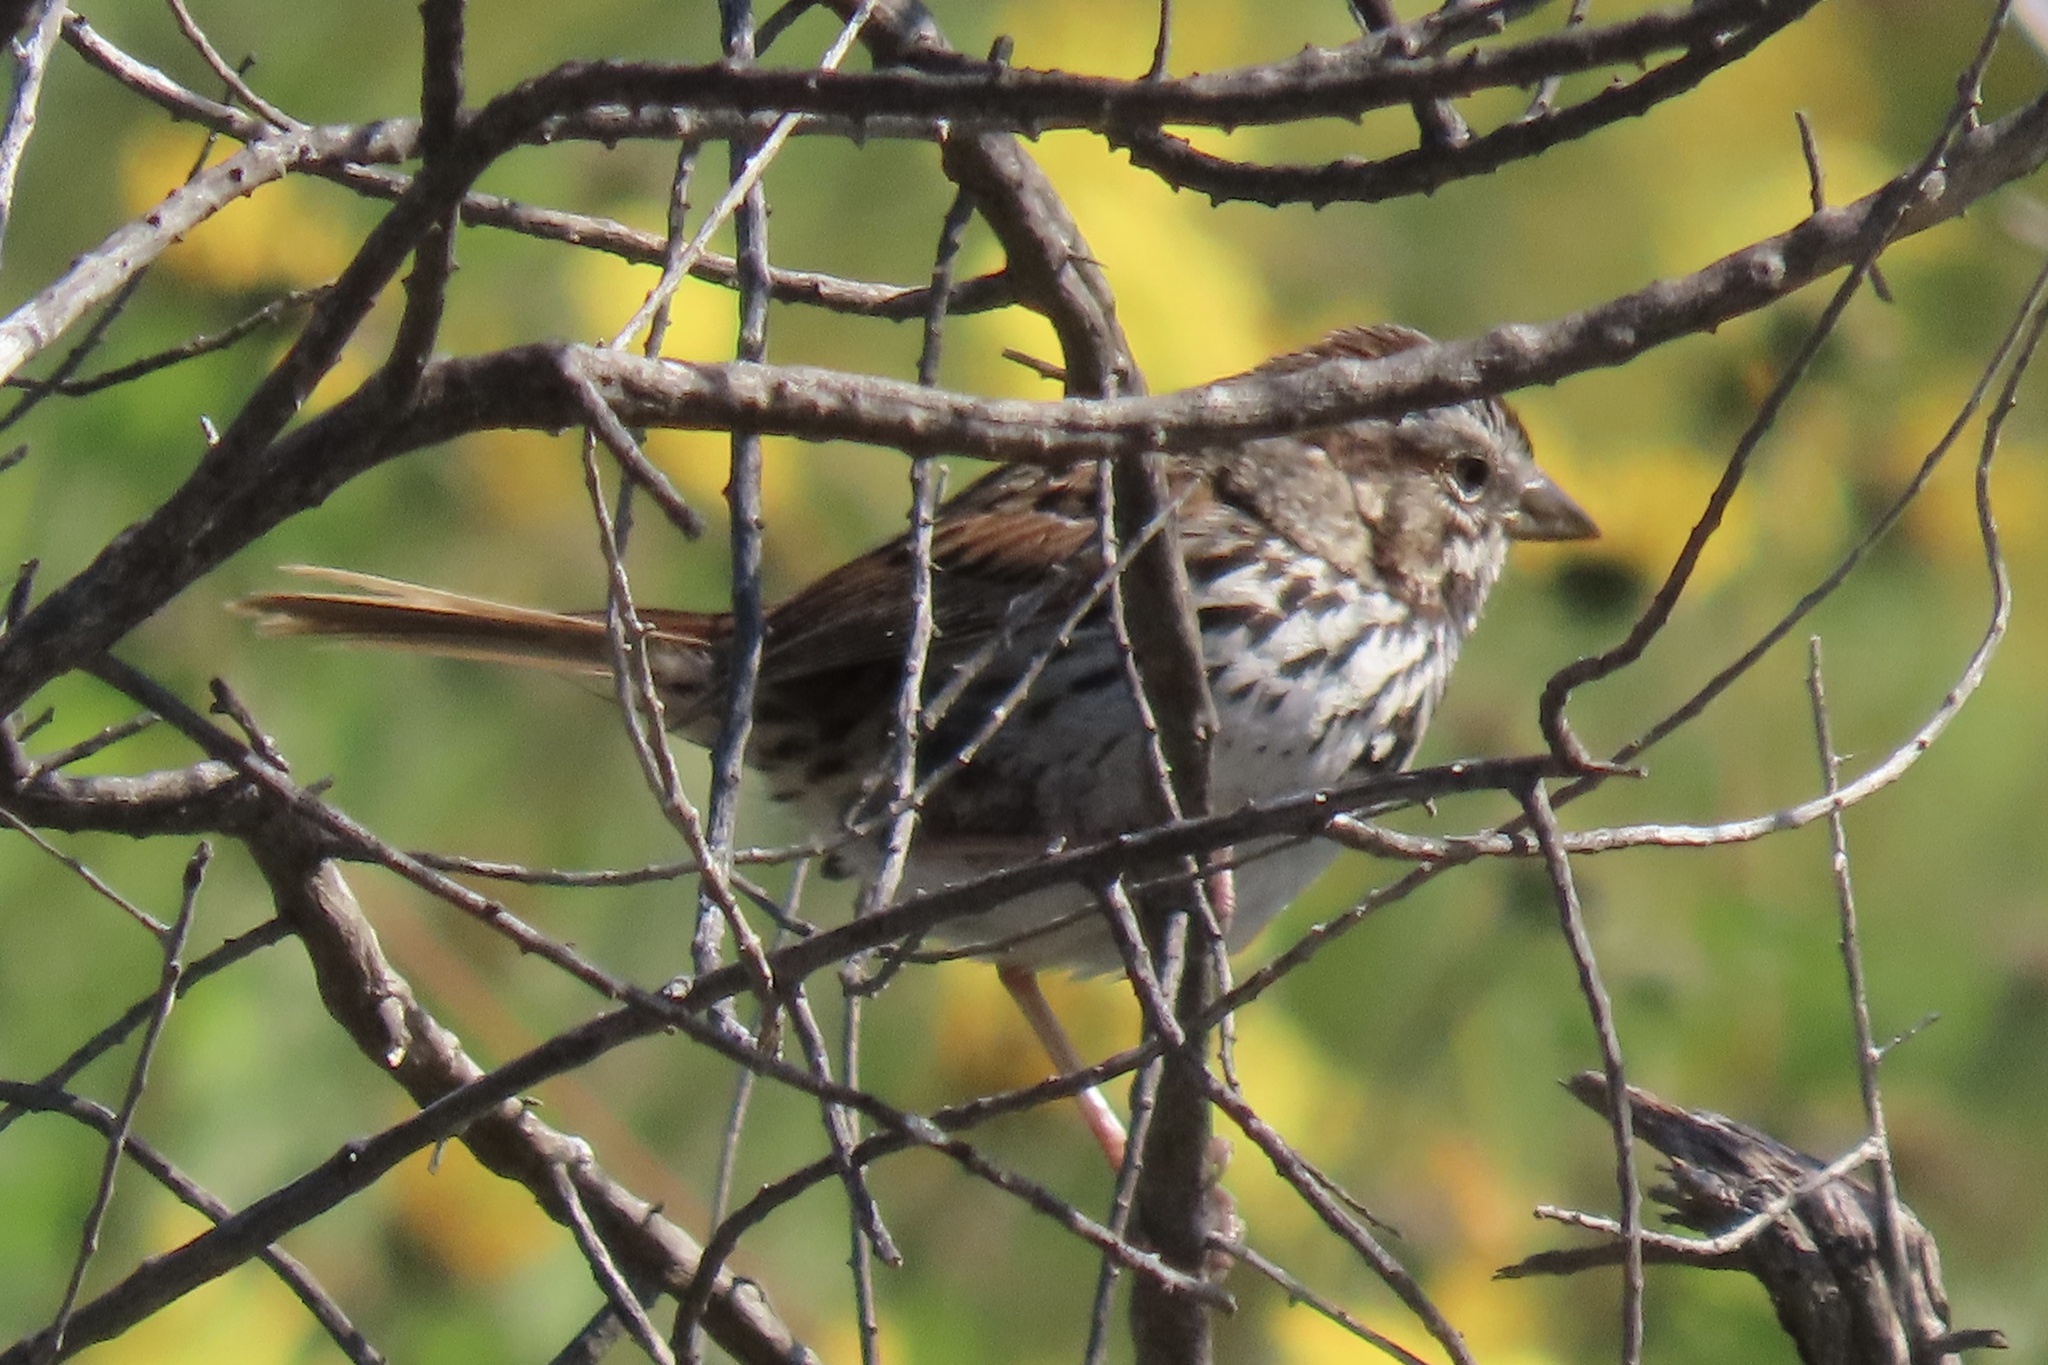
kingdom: Animalia
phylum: Chordata
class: Aves
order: Passeriformes
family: Passerellidae
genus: Melospiza
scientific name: Melospiza melodia
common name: Song sparrow
